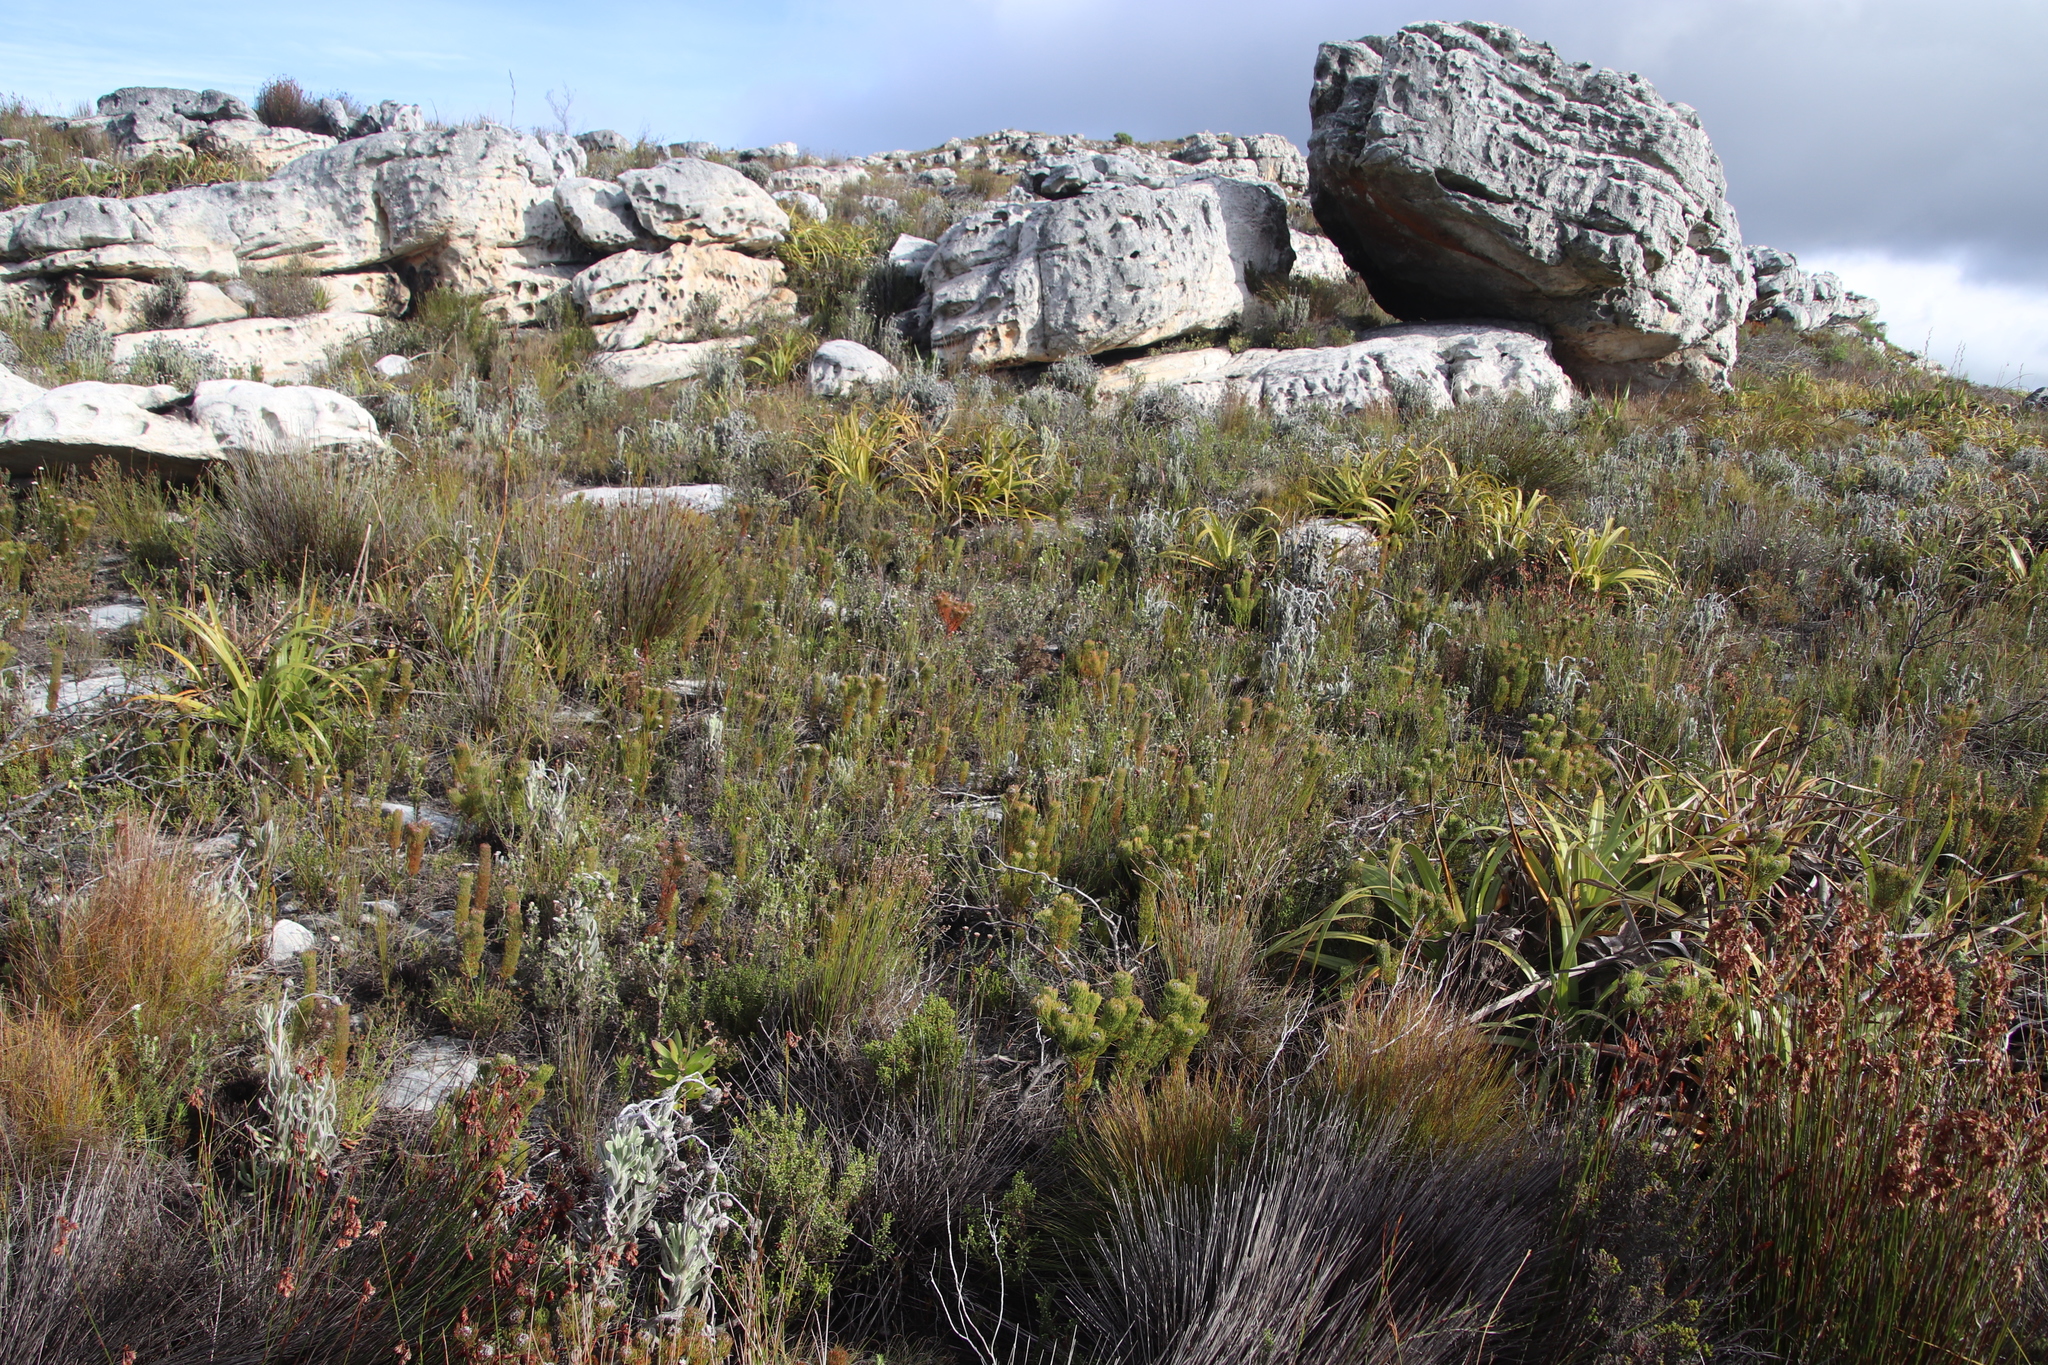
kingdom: Plantae
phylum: Tracheophyta
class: Magnoliopsida
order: Proteales
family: Proteaceae
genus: Serruria
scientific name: Serruria villosa
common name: Golden spiderhead
